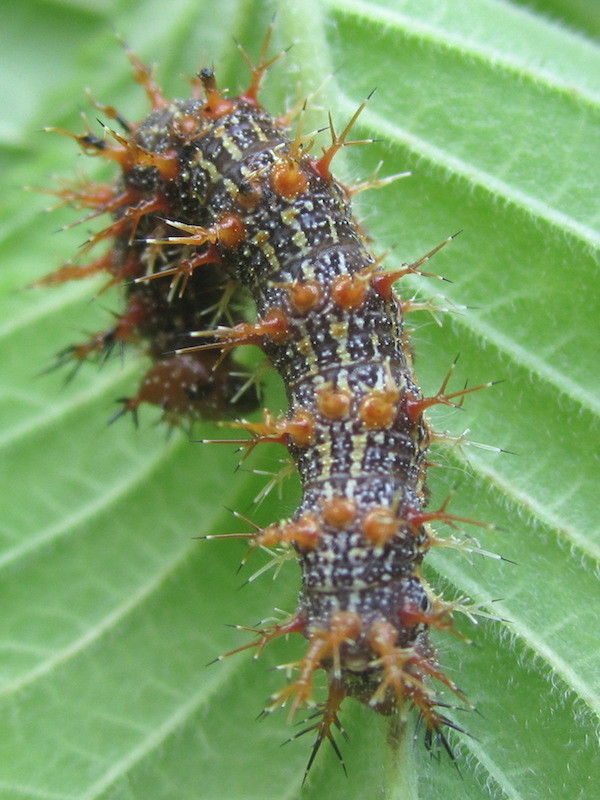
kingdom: Animalia
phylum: Arthropoda
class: Insecta
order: Lepidoptera
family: Nymphalidae
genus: Polygonia
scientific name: Polygonia interrogationis
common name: Question mark
